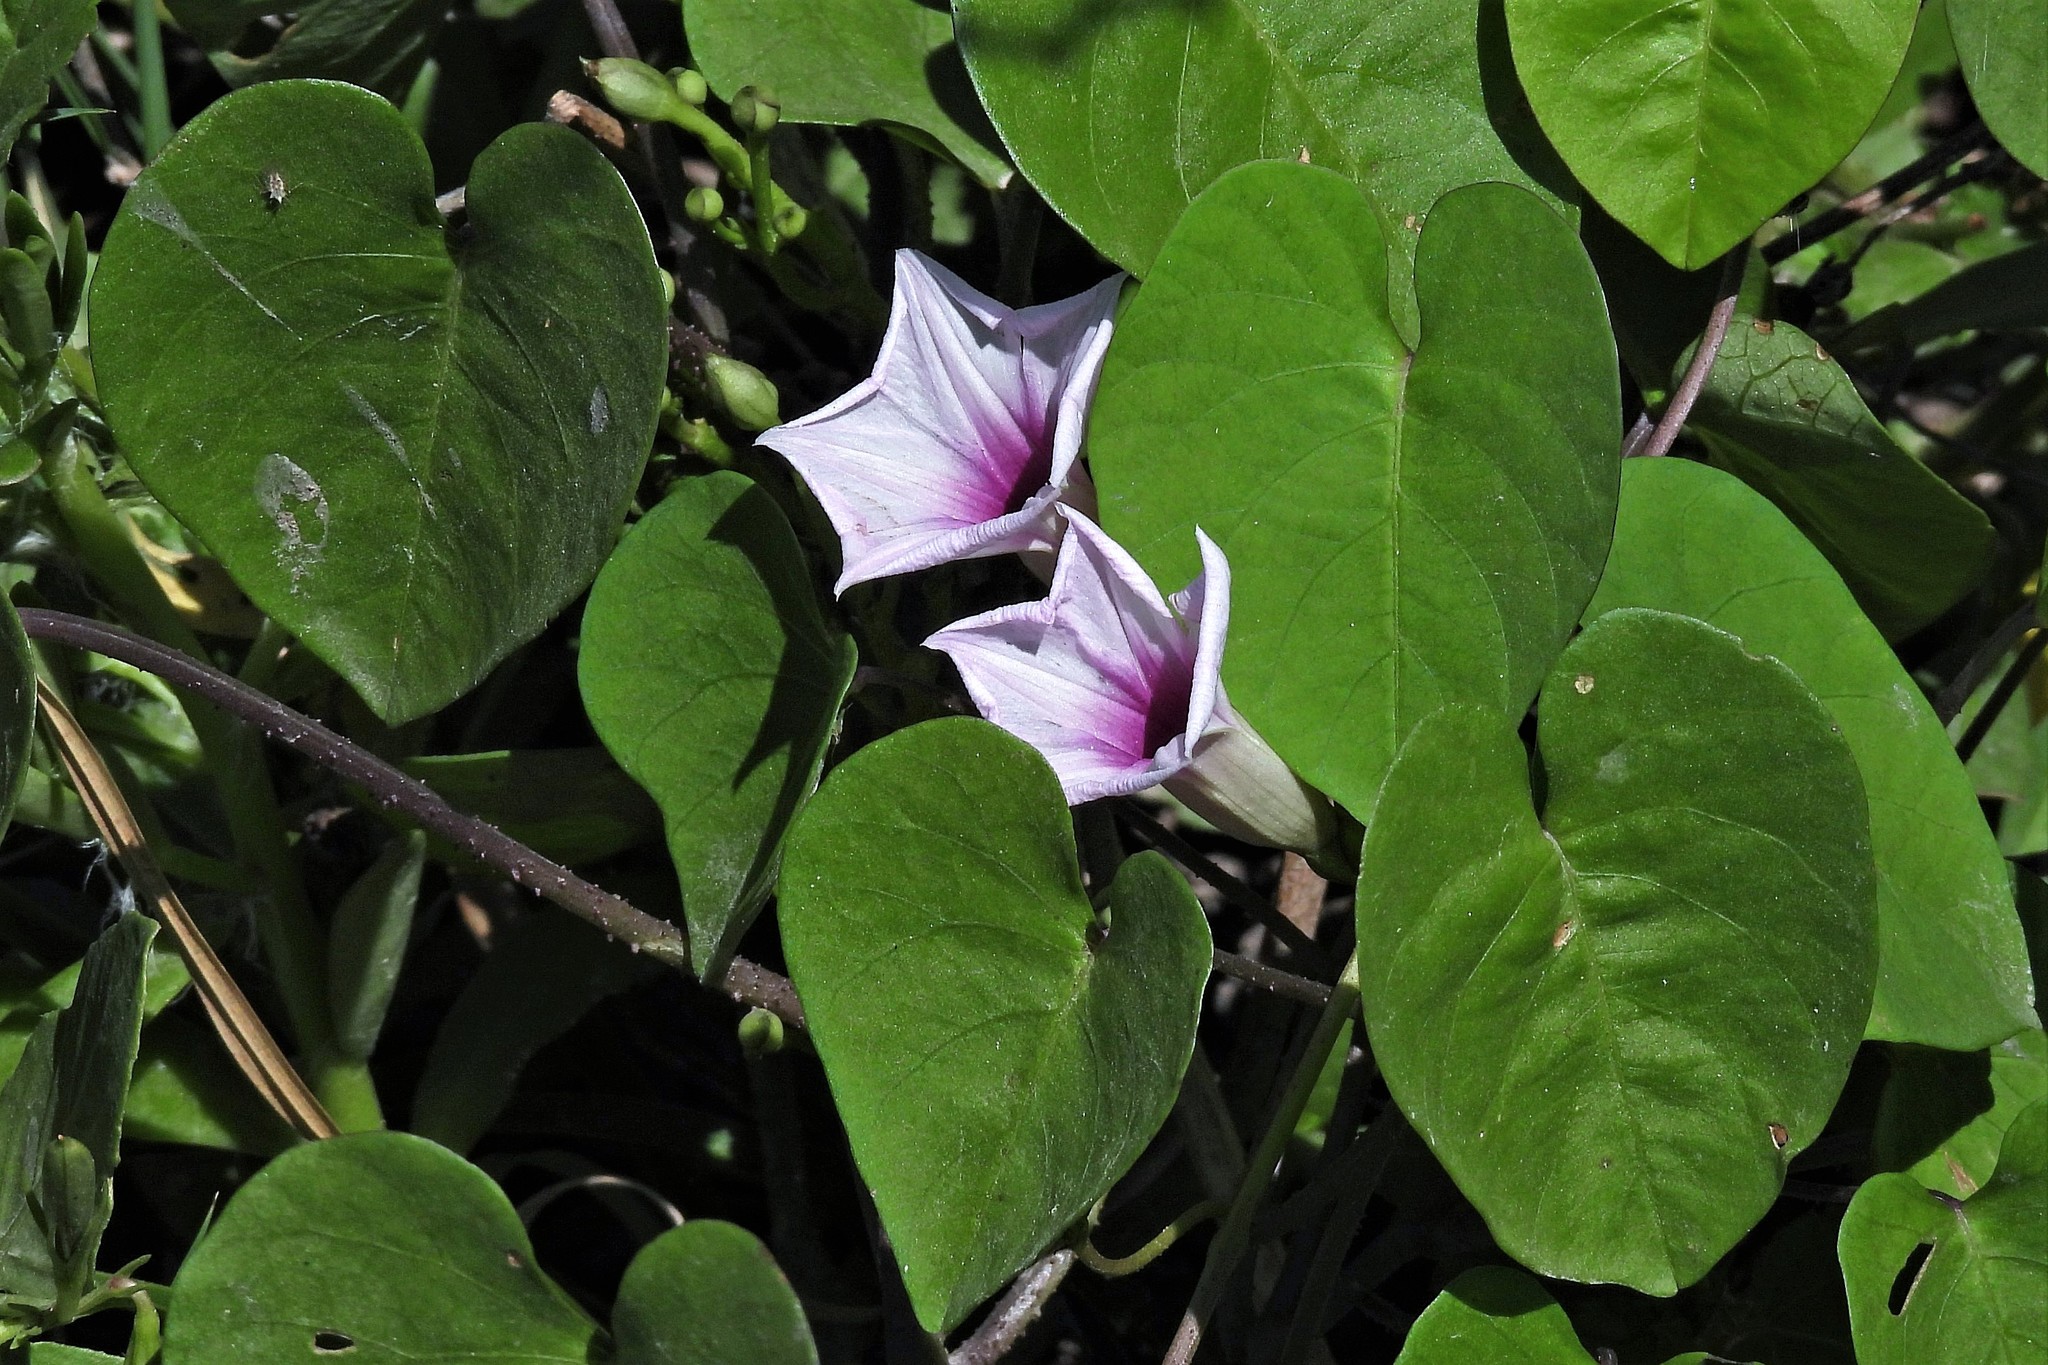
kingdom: Plantae
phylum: Tracheophyta
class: Magnoliopsida
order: Solanales
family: Convolvulaceae
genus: Ipomoea
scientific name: Ipomoea amnicola
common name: Redcenter morning-glory
